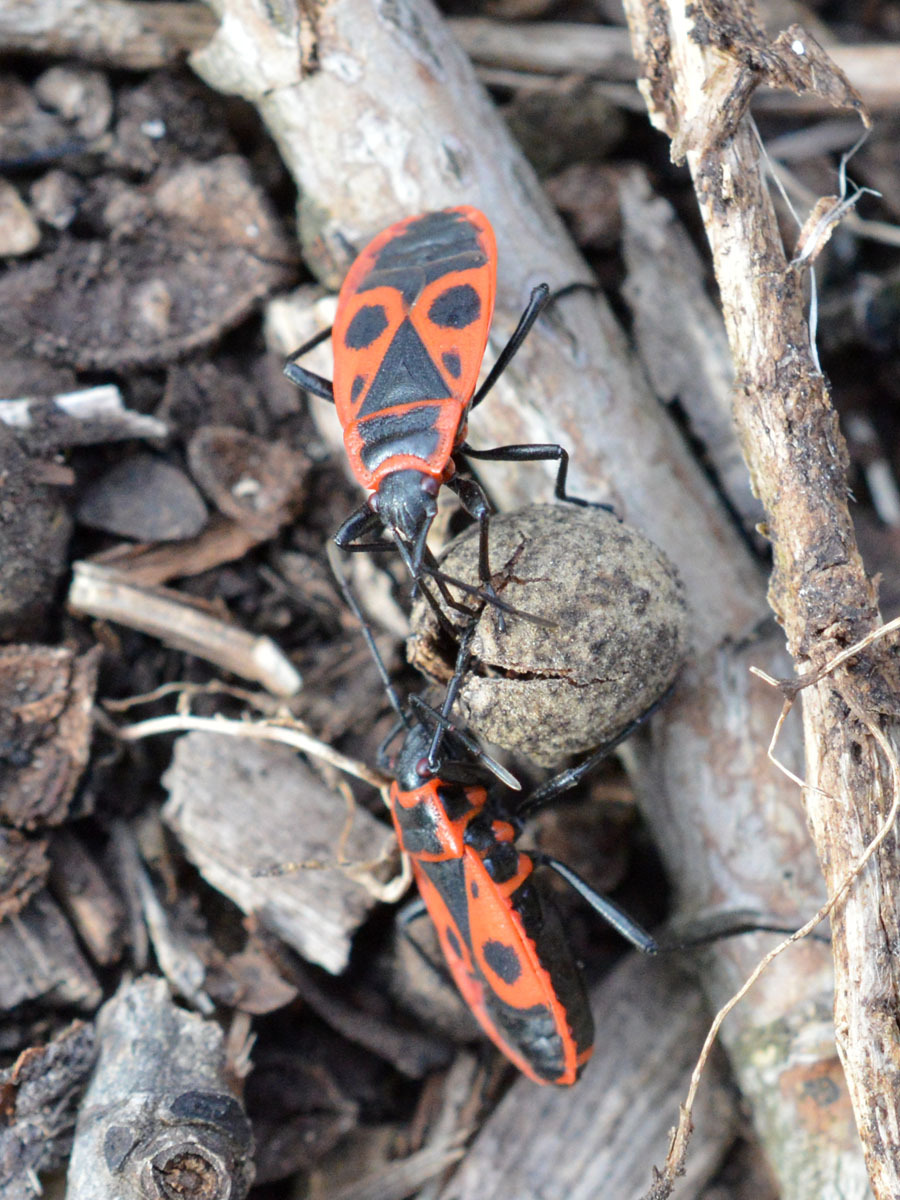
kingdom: Animalia
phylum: Arthropoda
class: Insecta
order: Hemiptera
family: Pyrrhocoridae
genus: Pyrrhocoris
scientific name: Pyrrhocoris apterus
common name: Firebug
